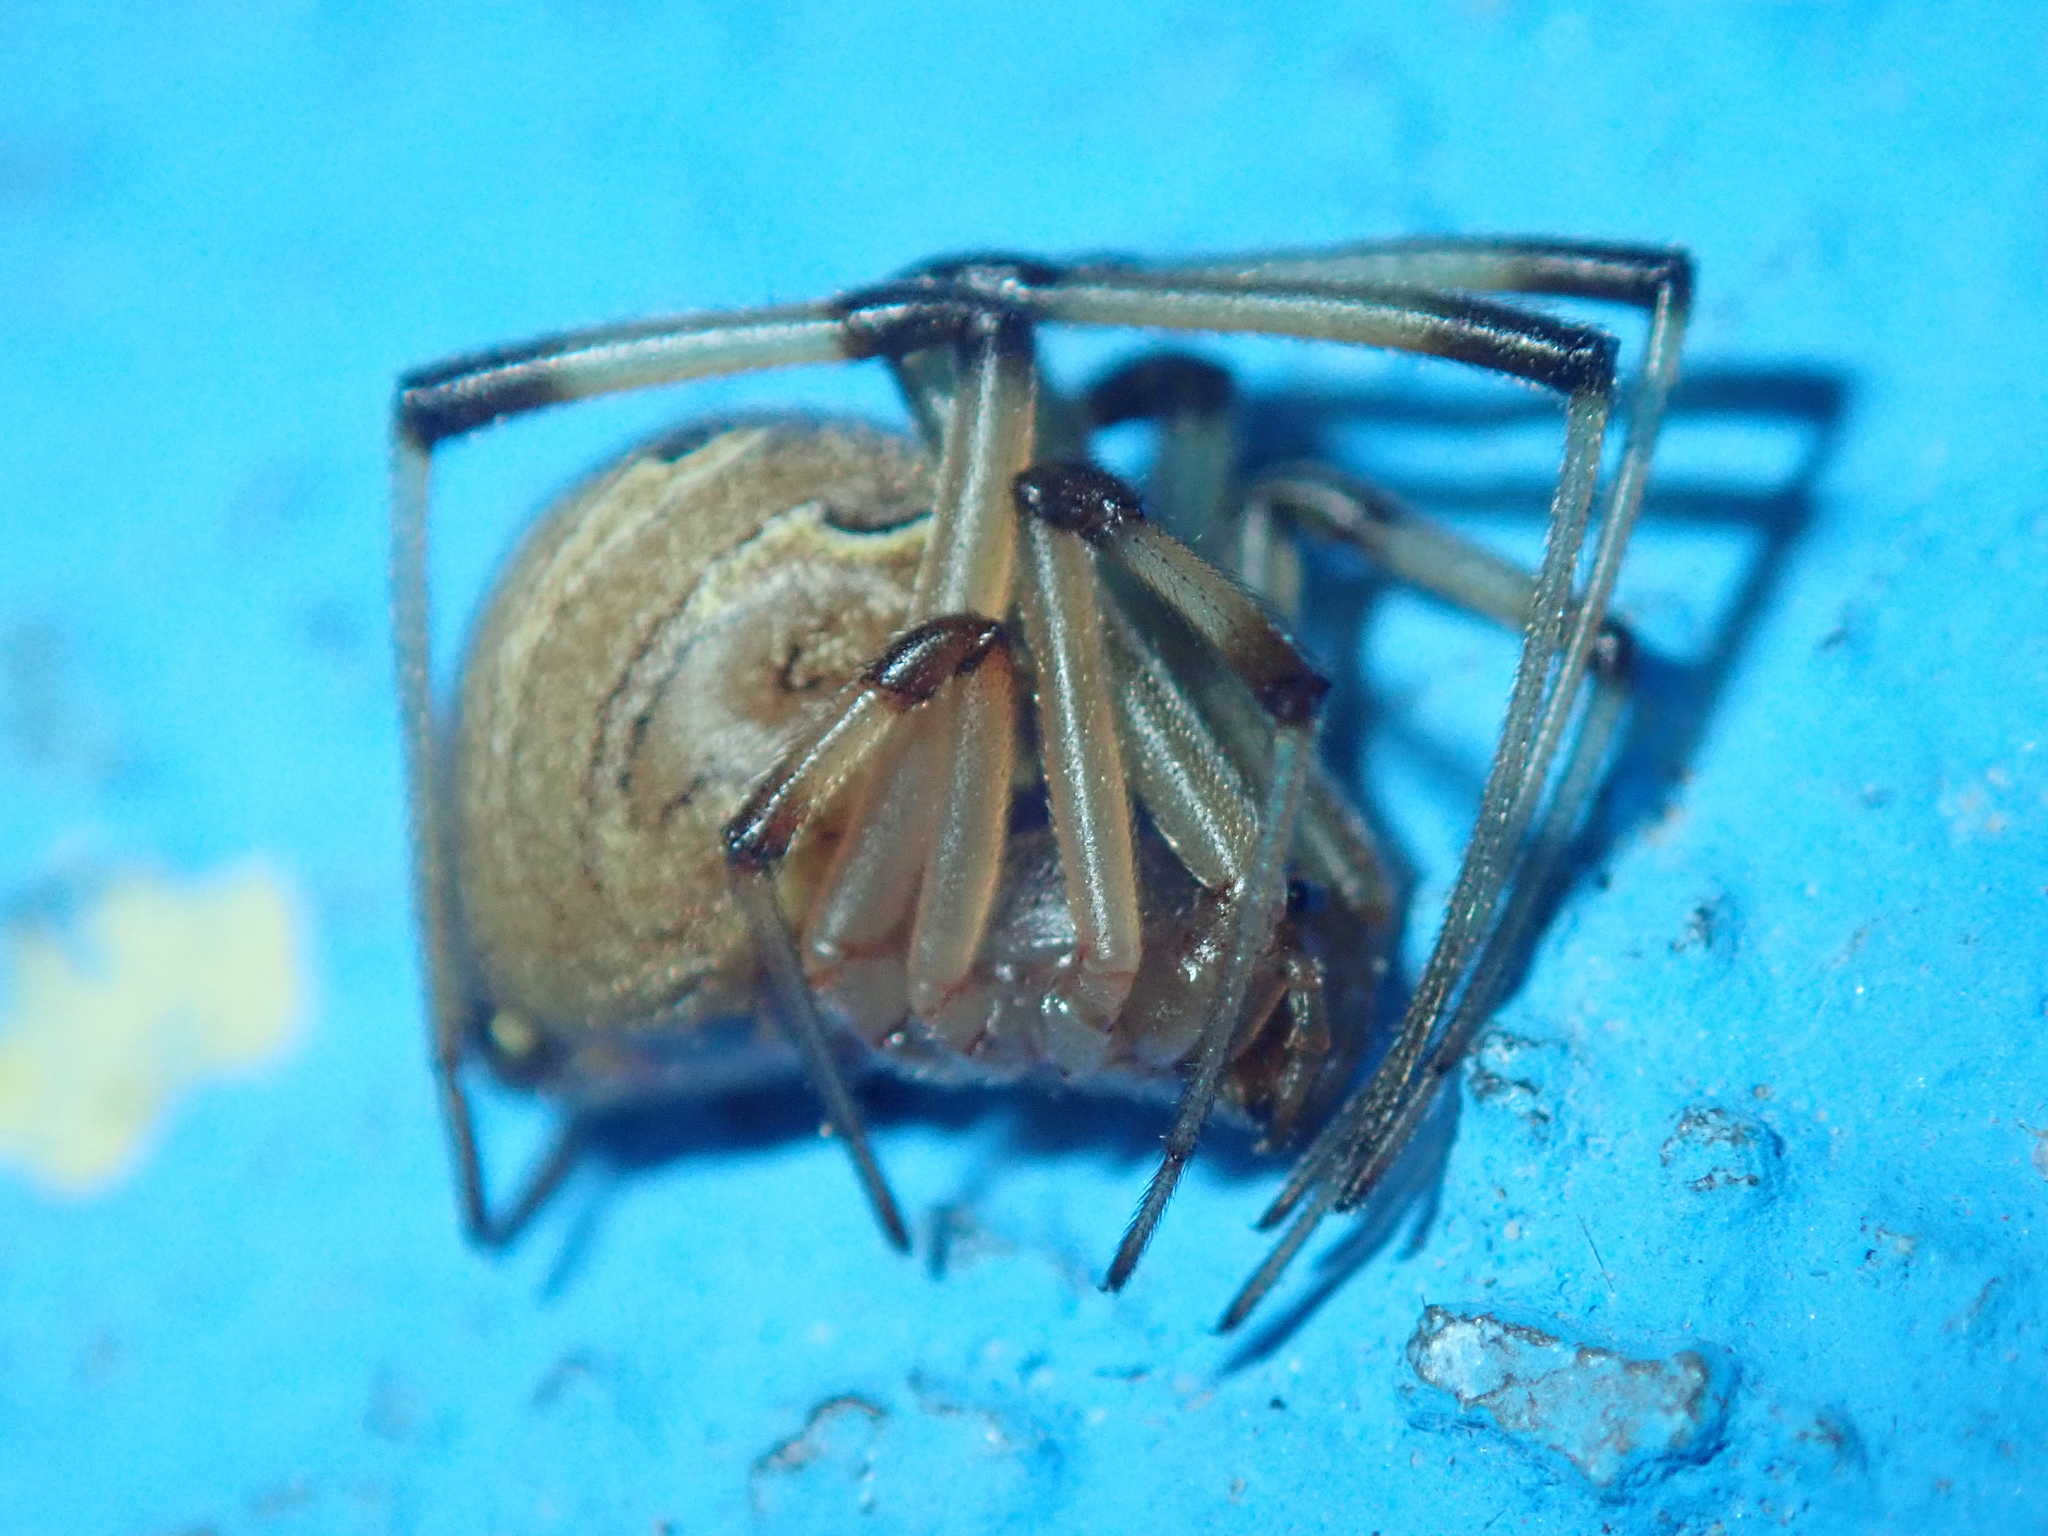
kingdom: Animalia
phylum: Arthropoda
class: Arachnida
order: Araneae
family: Theridiidae
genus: Latrodectus
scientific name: Latrodectus geometricus
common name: Brown widow spider
